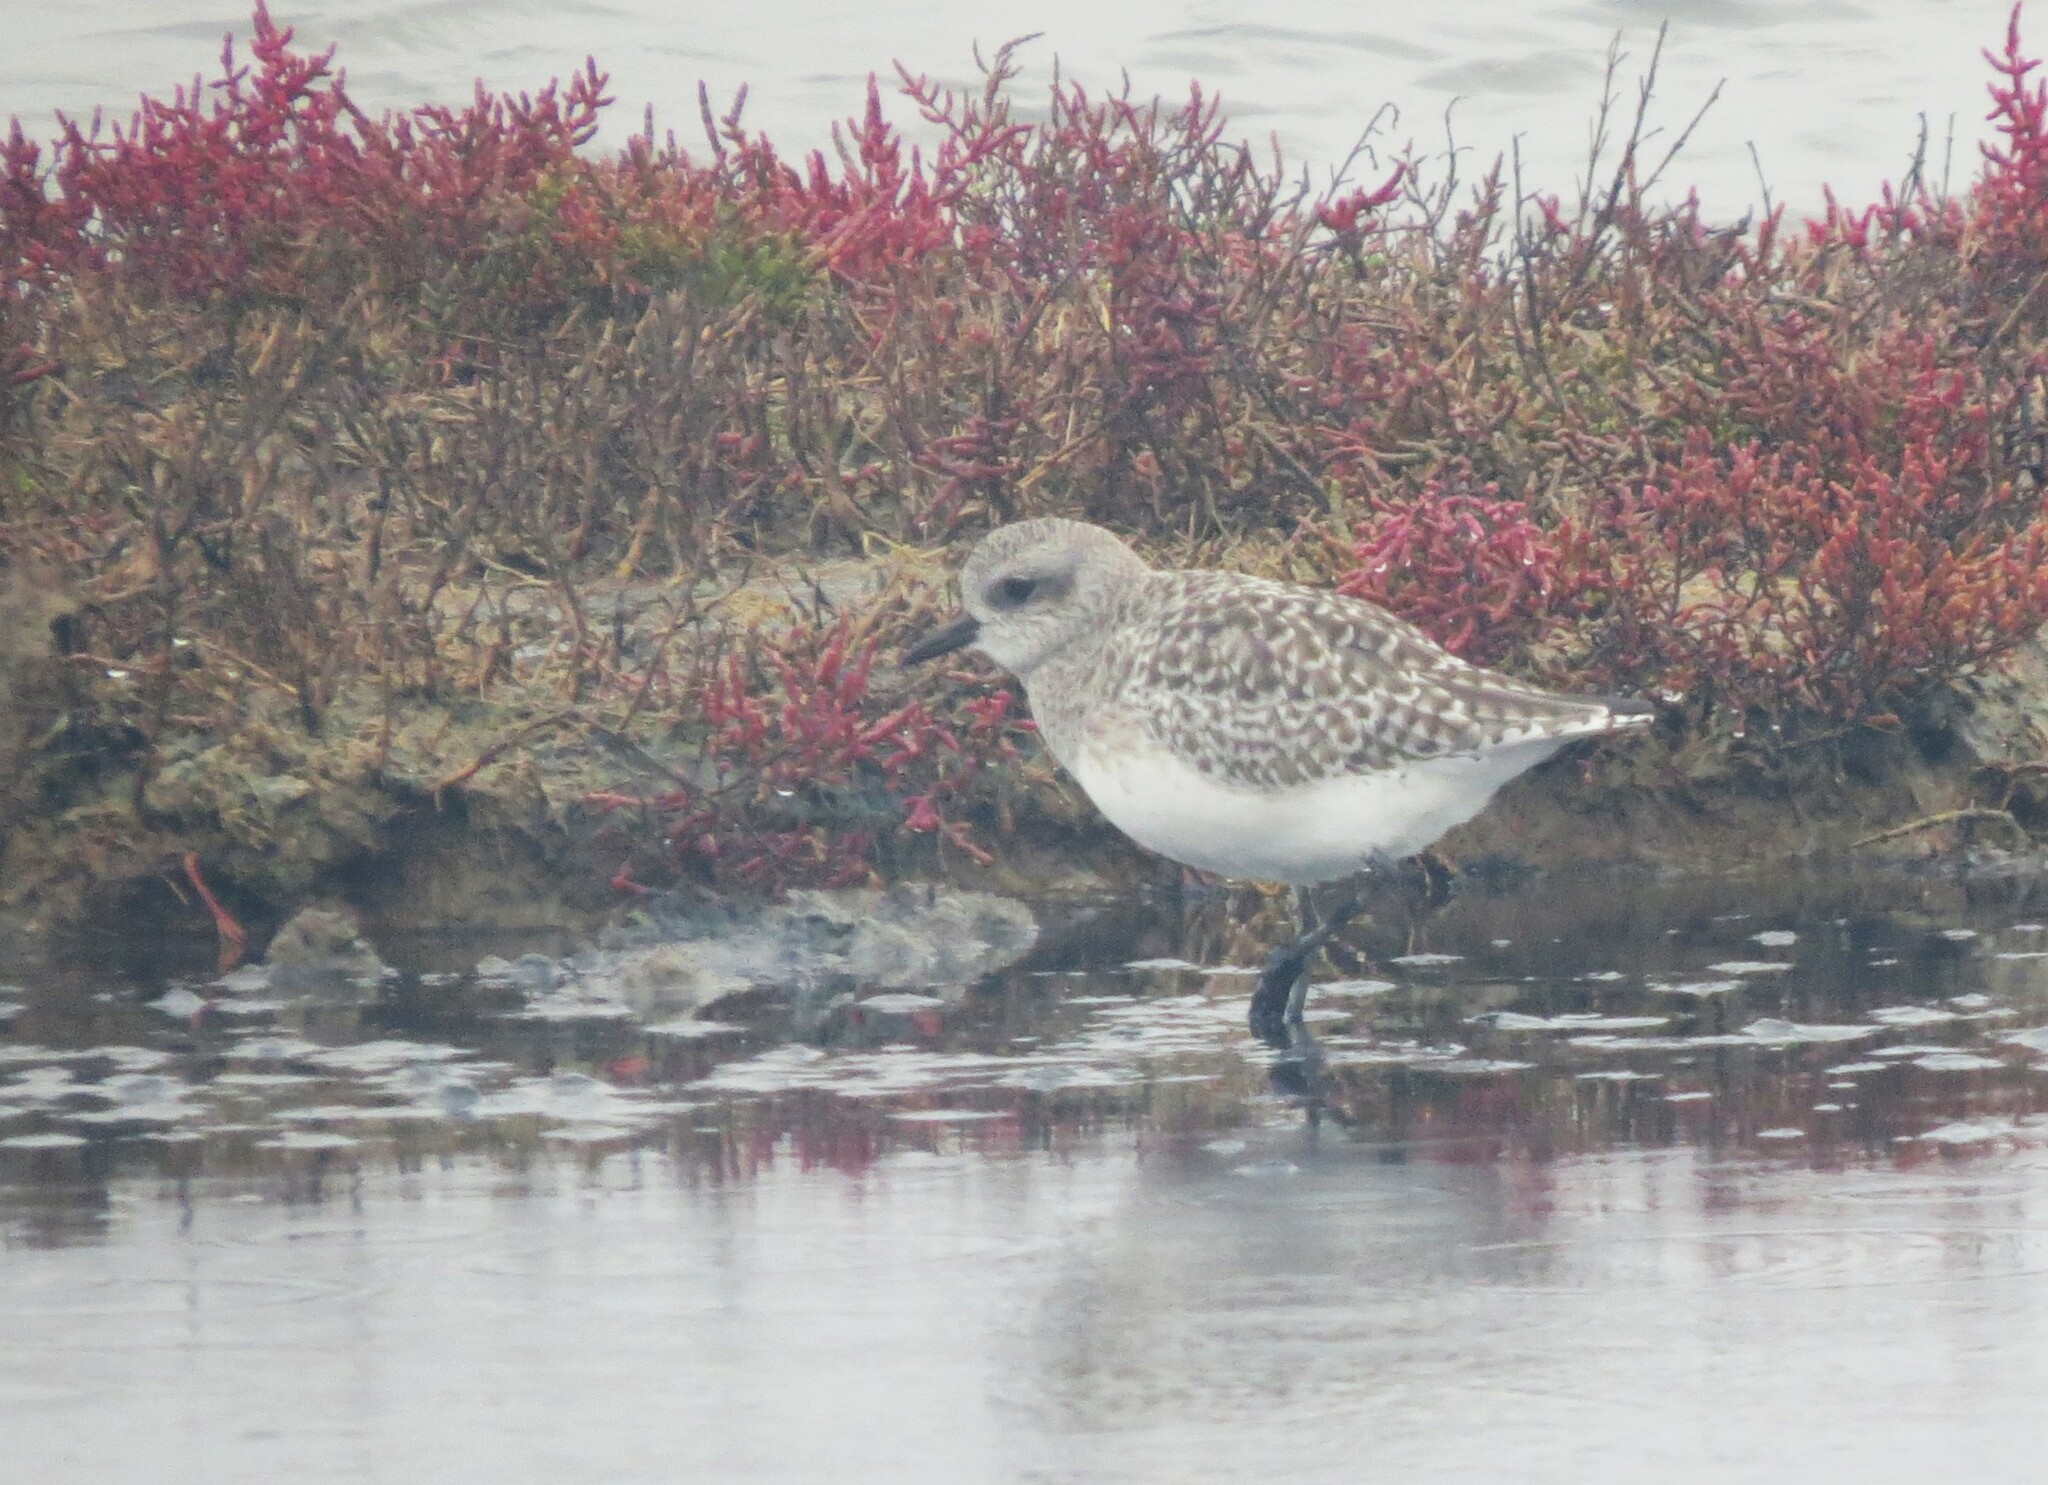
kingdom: Animalia
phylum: Chordata
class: Aves
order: Charadriiformes
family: Charadriidae
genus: Pluvialis
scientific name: Pluvialis squatarola
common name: Grey plover
